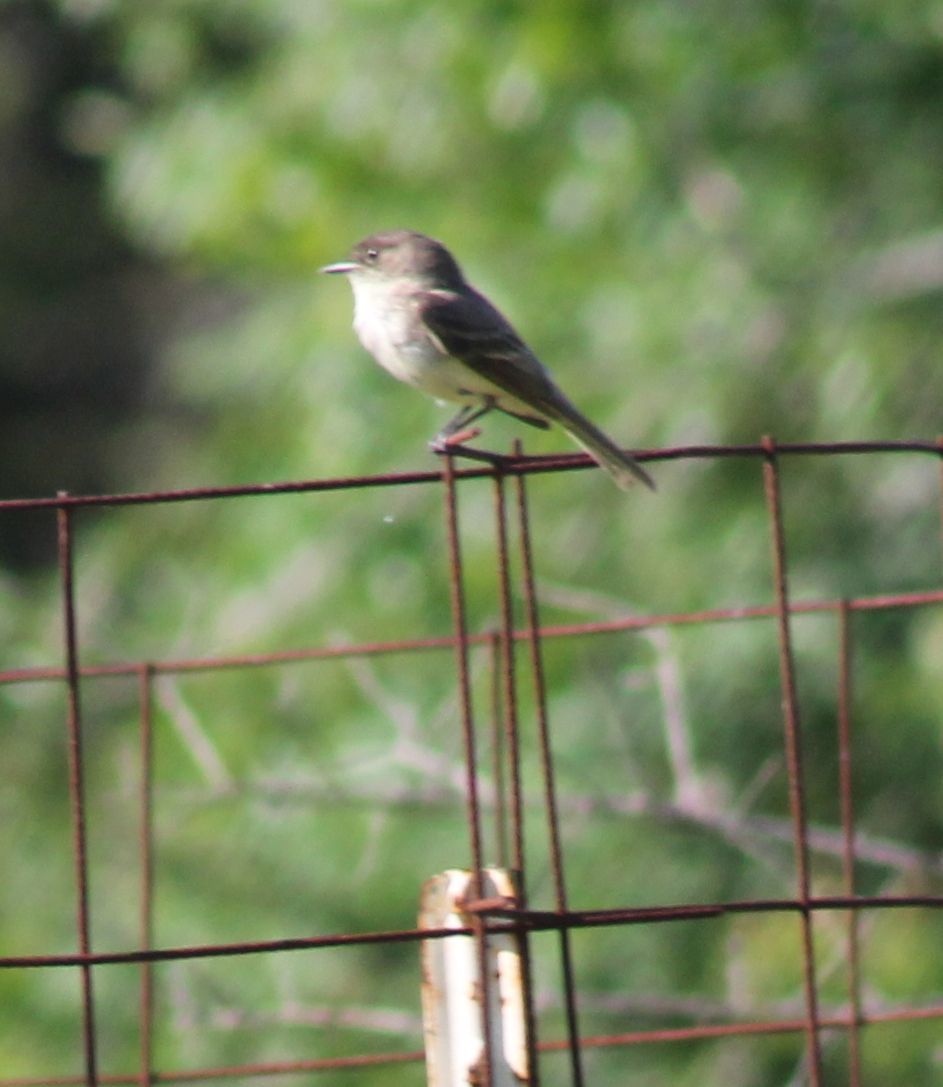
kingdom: Animalia
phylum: Chordata
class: Aves
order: Passeriformes
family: Tyrannidae
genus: Sayornis
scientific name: Sayornis phoebe
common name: Eastern phoebe
